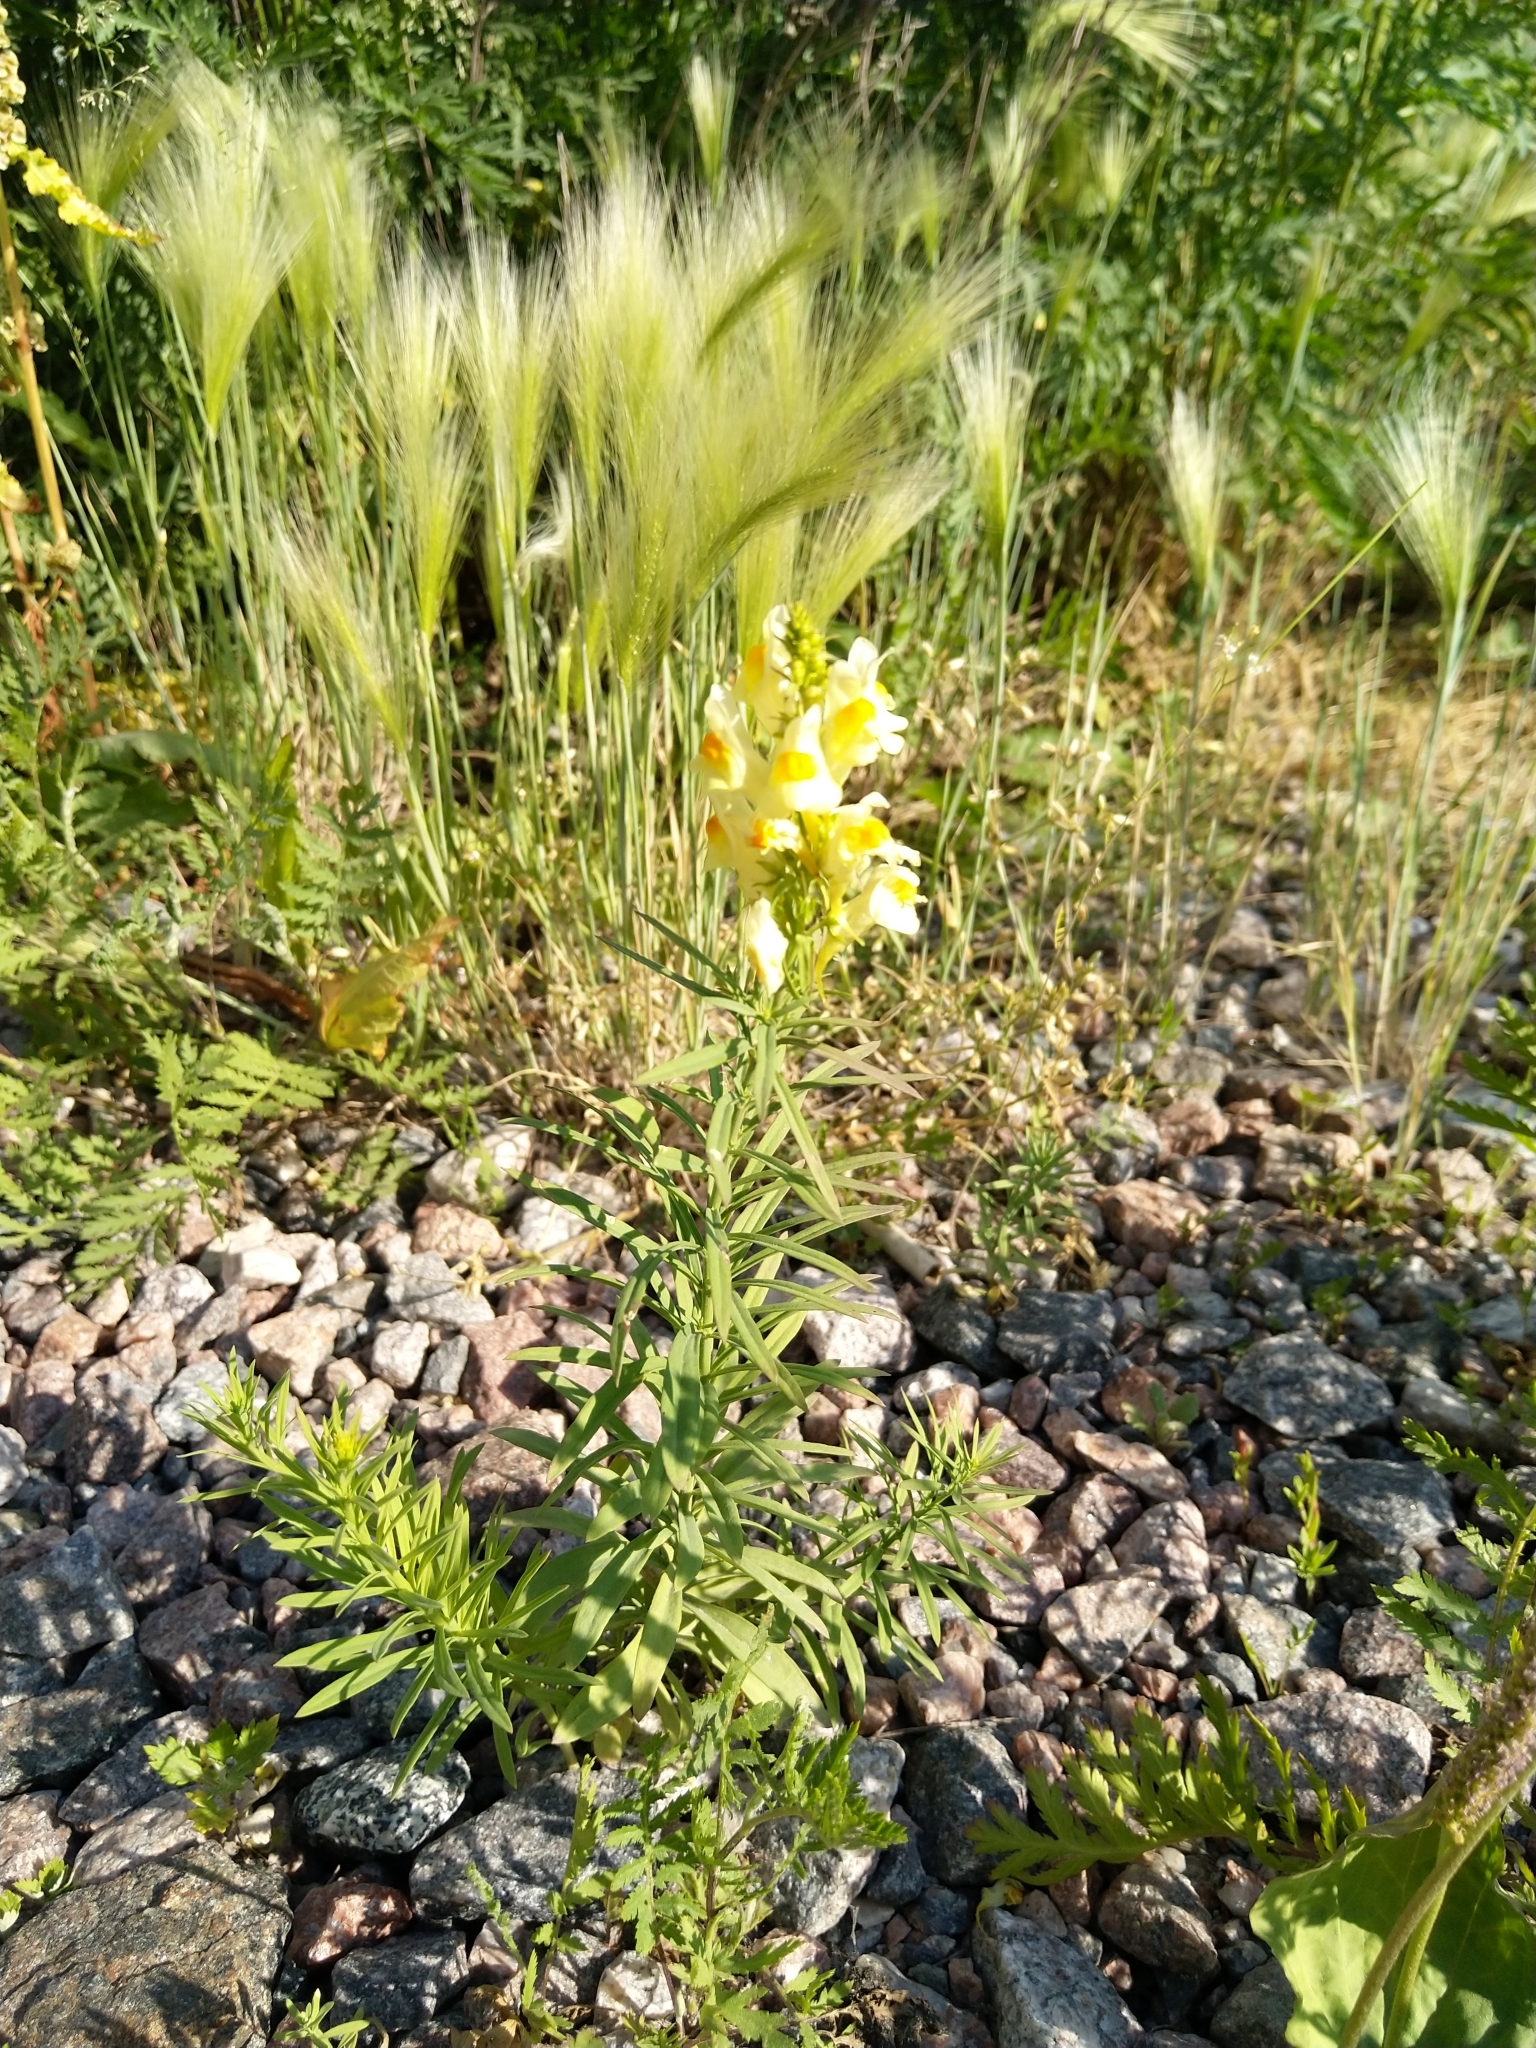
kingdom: Plantae
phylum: Tracheophyta
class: Magnoliopsida
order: Lamiales
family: Plantaginaceae
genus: Linaria
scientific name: Linaria vulgaris
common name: Butter and eggs
